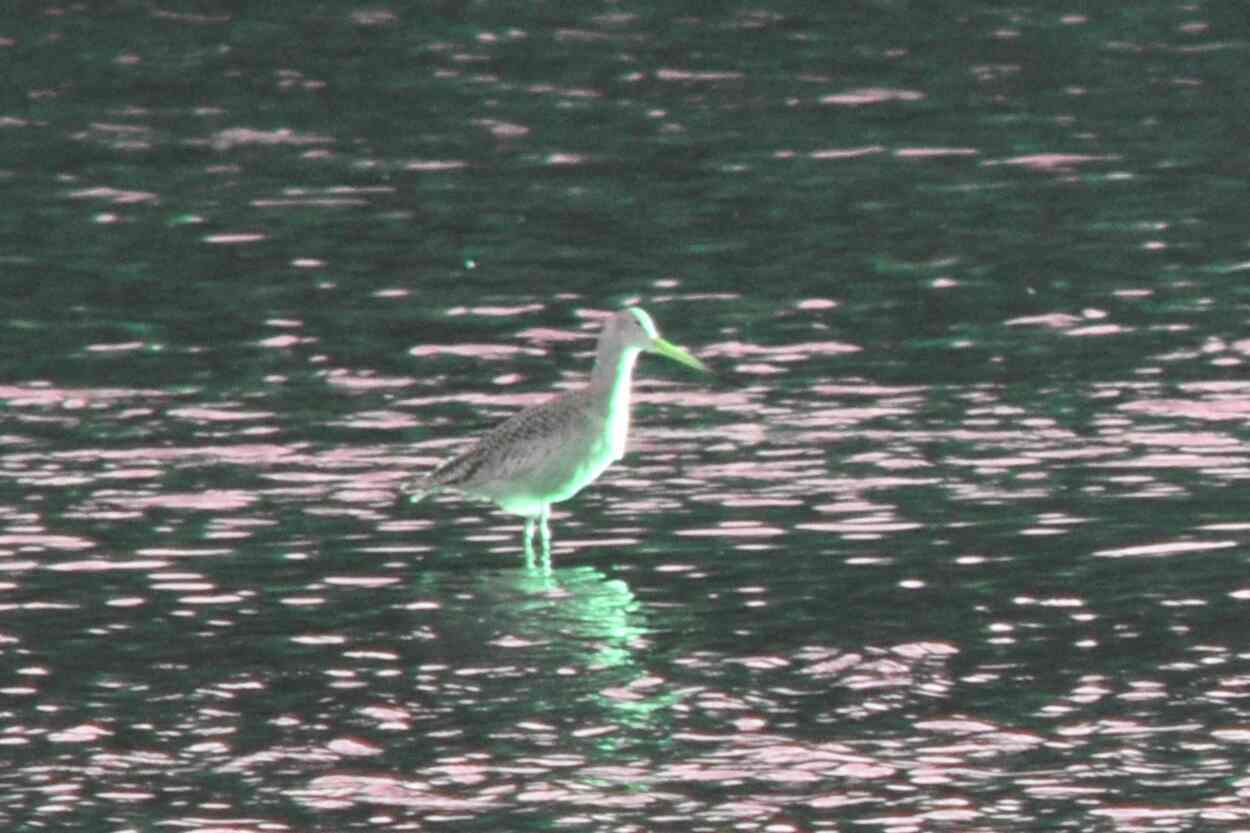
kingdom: Animalia
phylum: Chordata
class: Aves
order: Charadriiformes
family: Scolopacidae
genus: Limosa
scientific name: Limosa fedoa
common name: Marbled godwit
